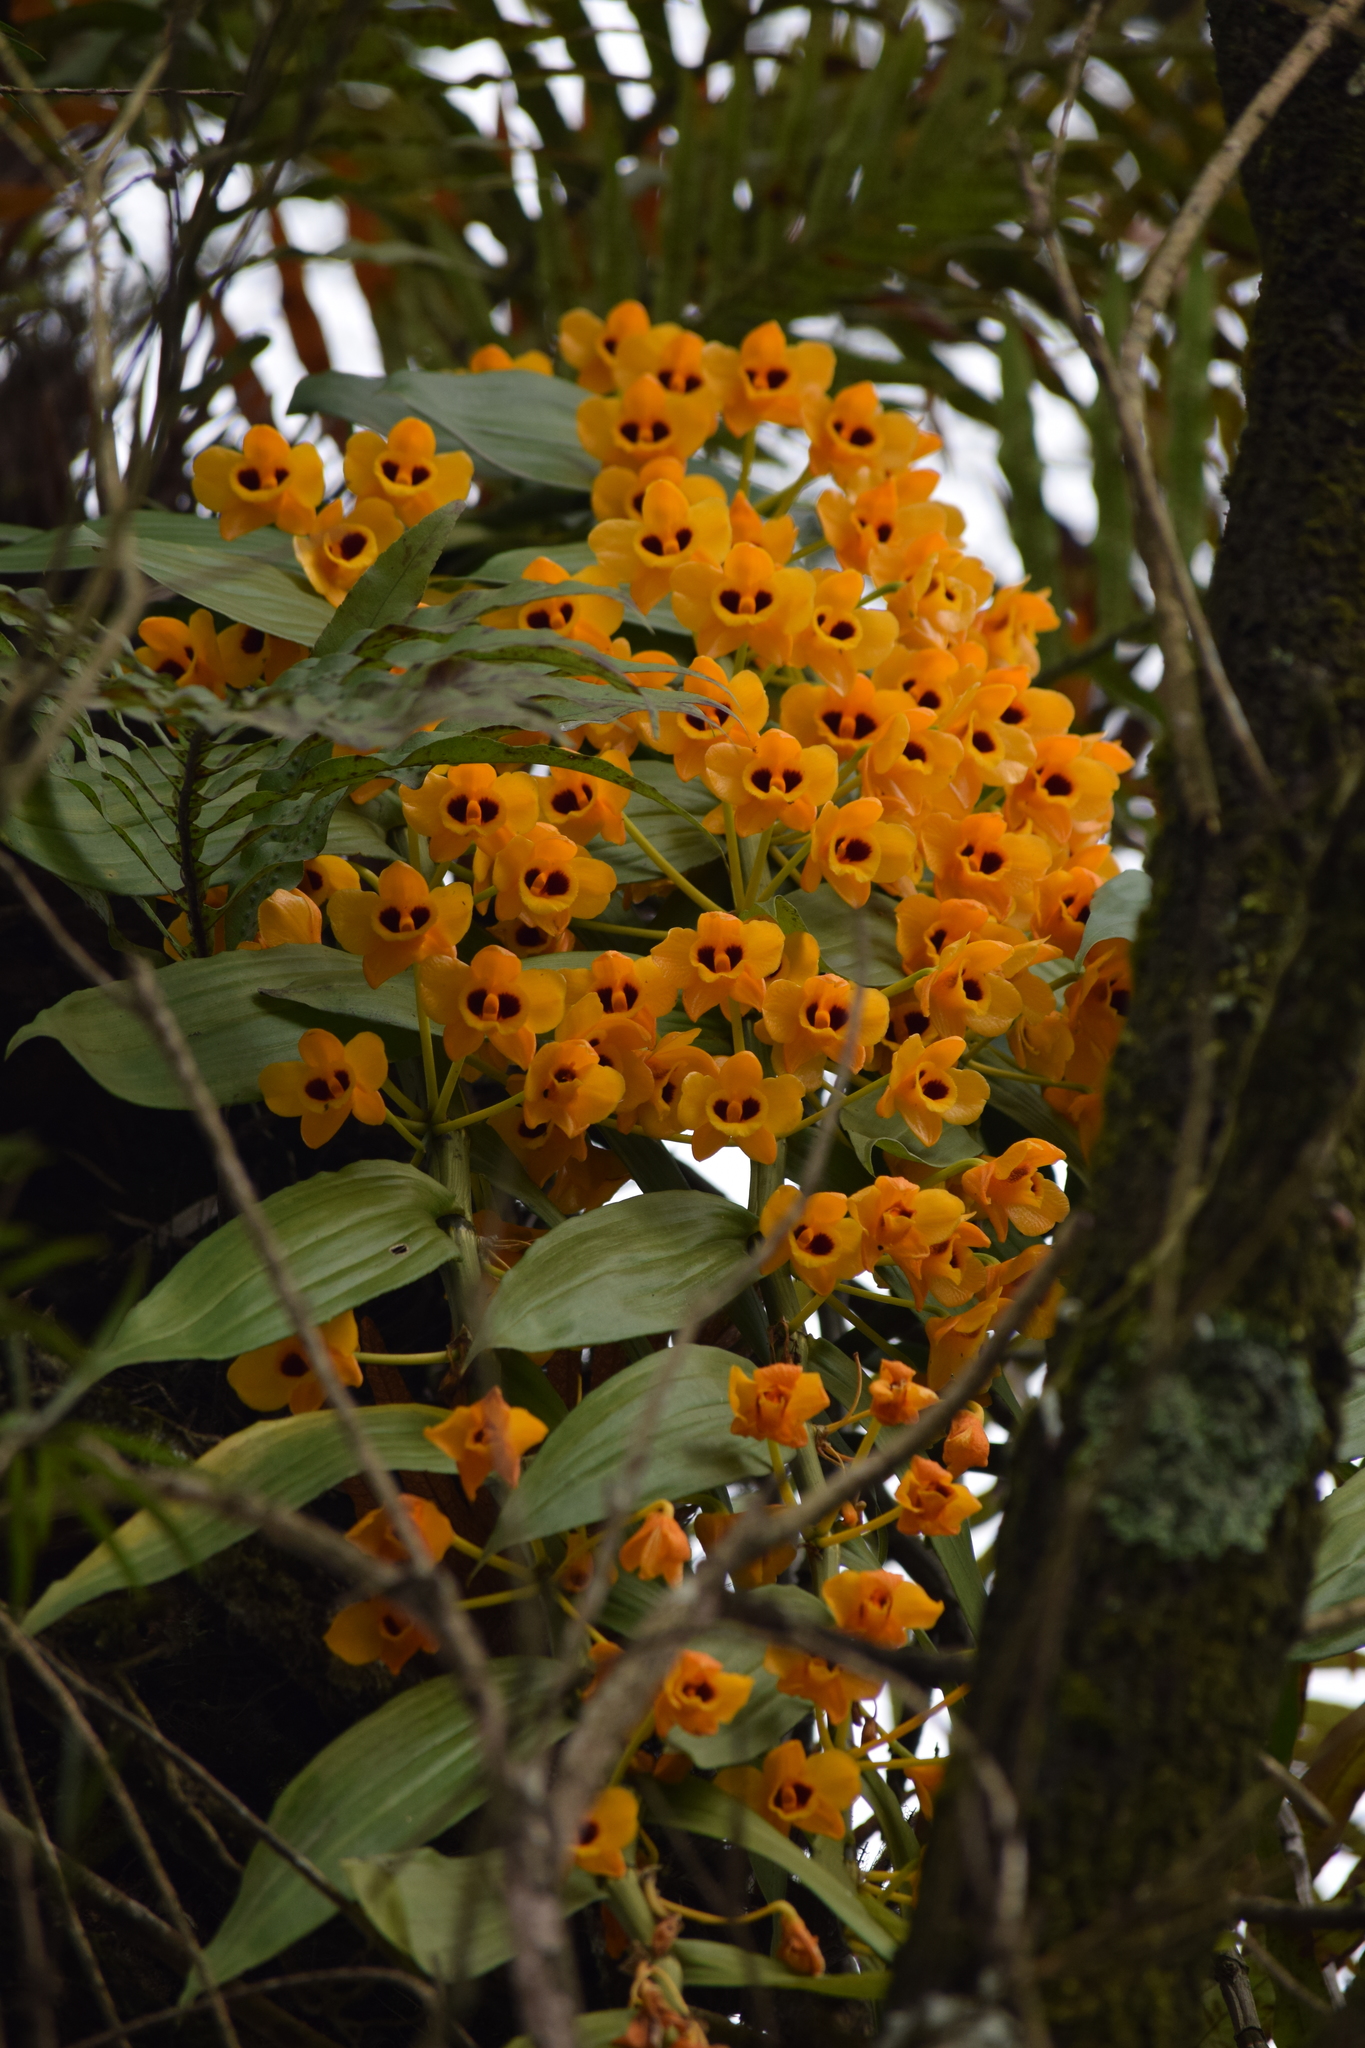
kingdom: Plantae
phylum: Tracheophyta
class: Liliopsida
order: Asparagales
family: Orchidaceae
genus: Dendrobium
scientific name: Dendrobium chrysanthum
